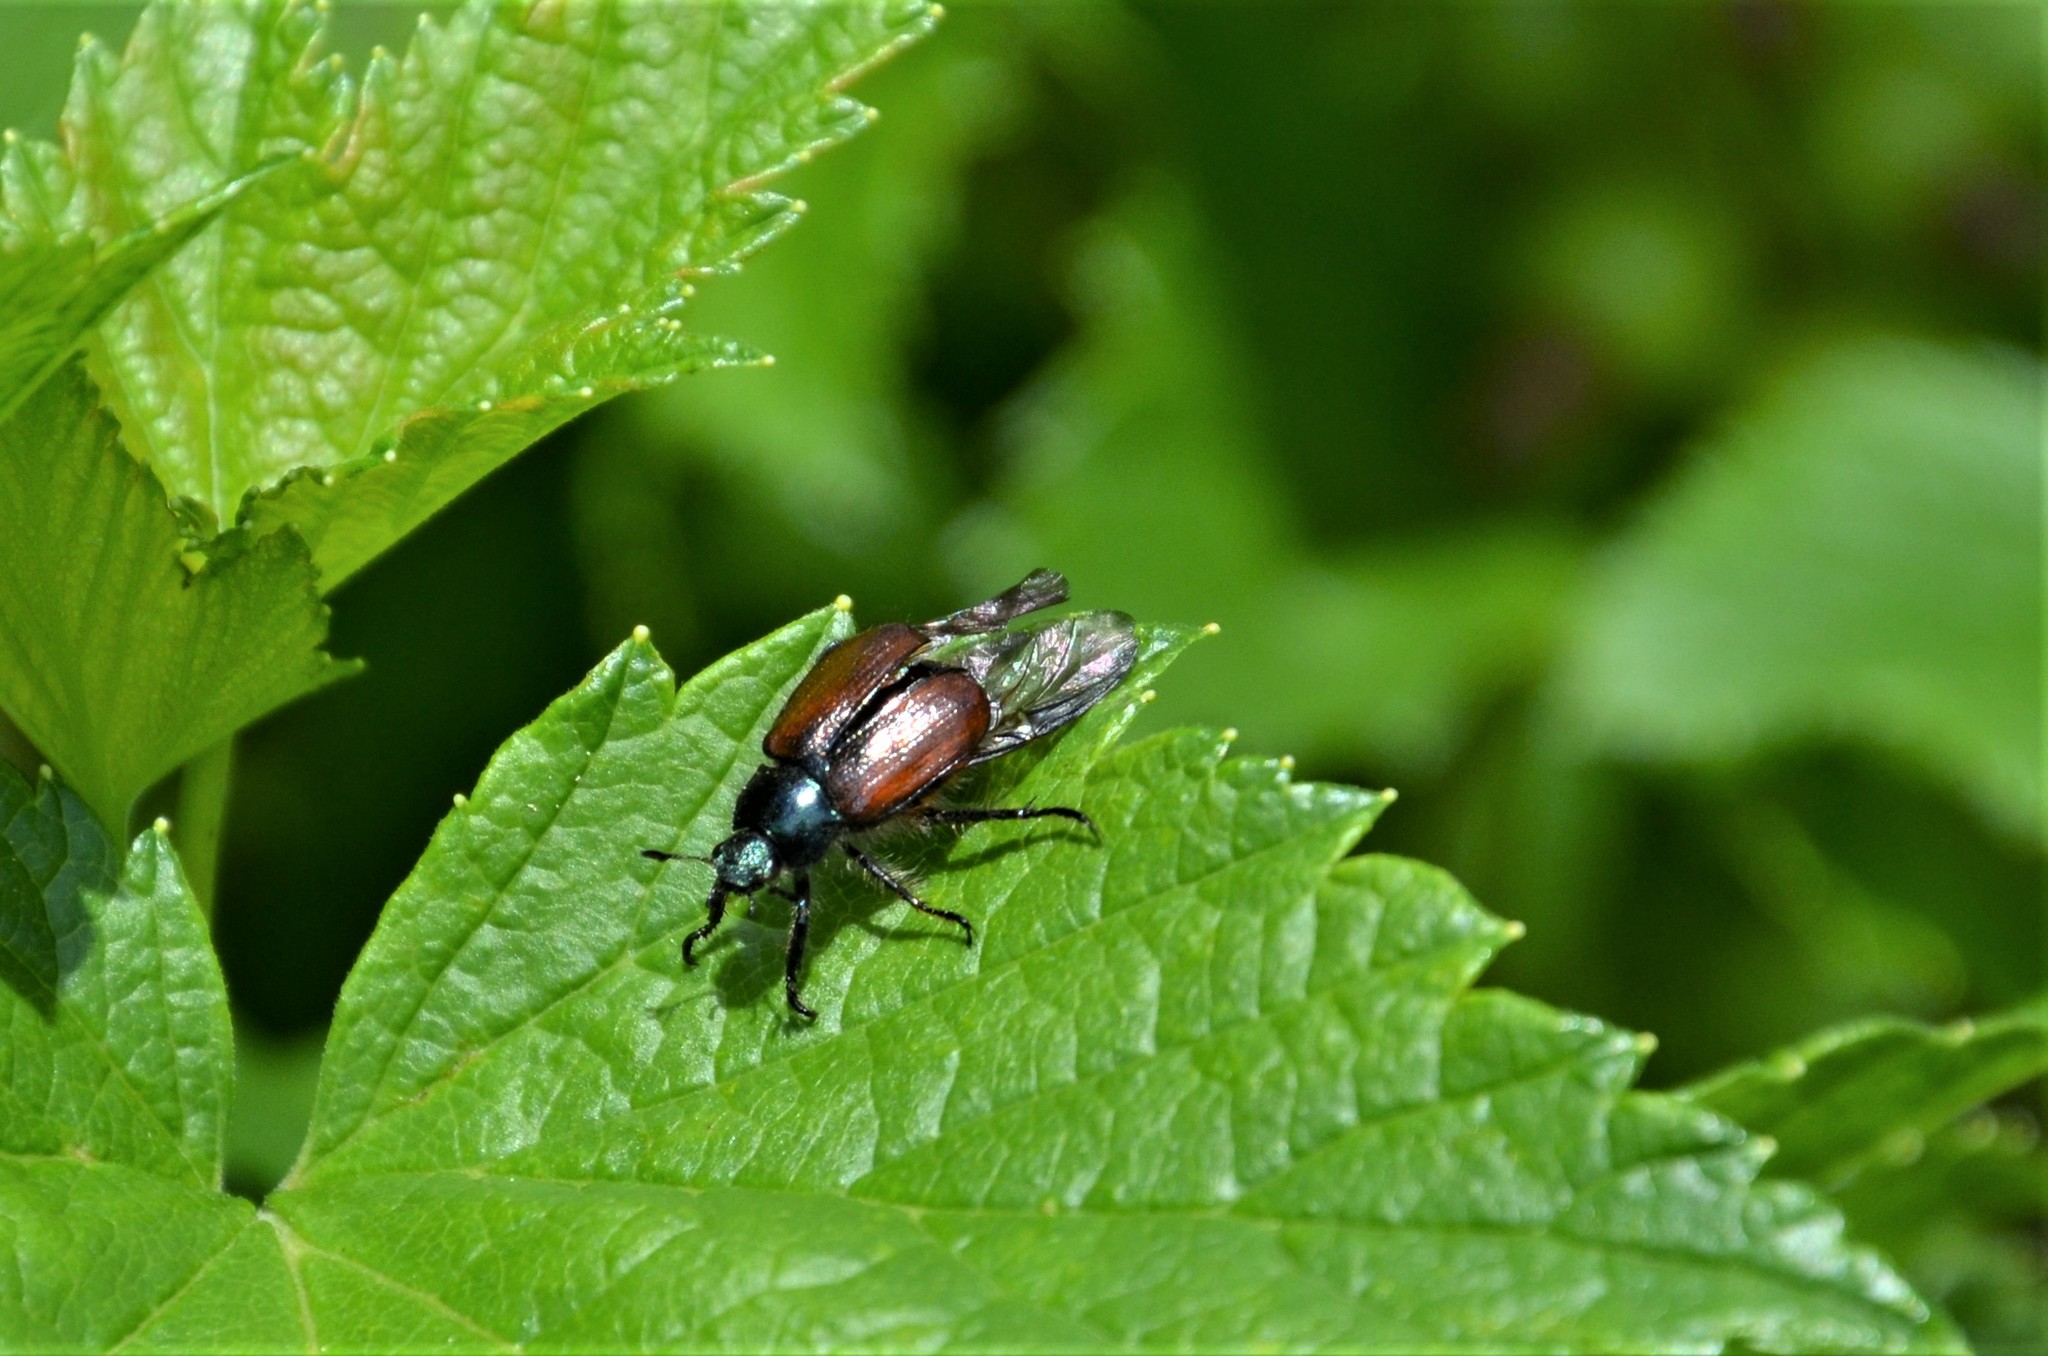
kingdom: Animalia
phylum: Arthropoda
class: Insecta
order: Coleoptera
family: Scarabaeidae
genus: Phyllopertha
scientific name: Phyllopertha horticola
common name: Garden chafer
